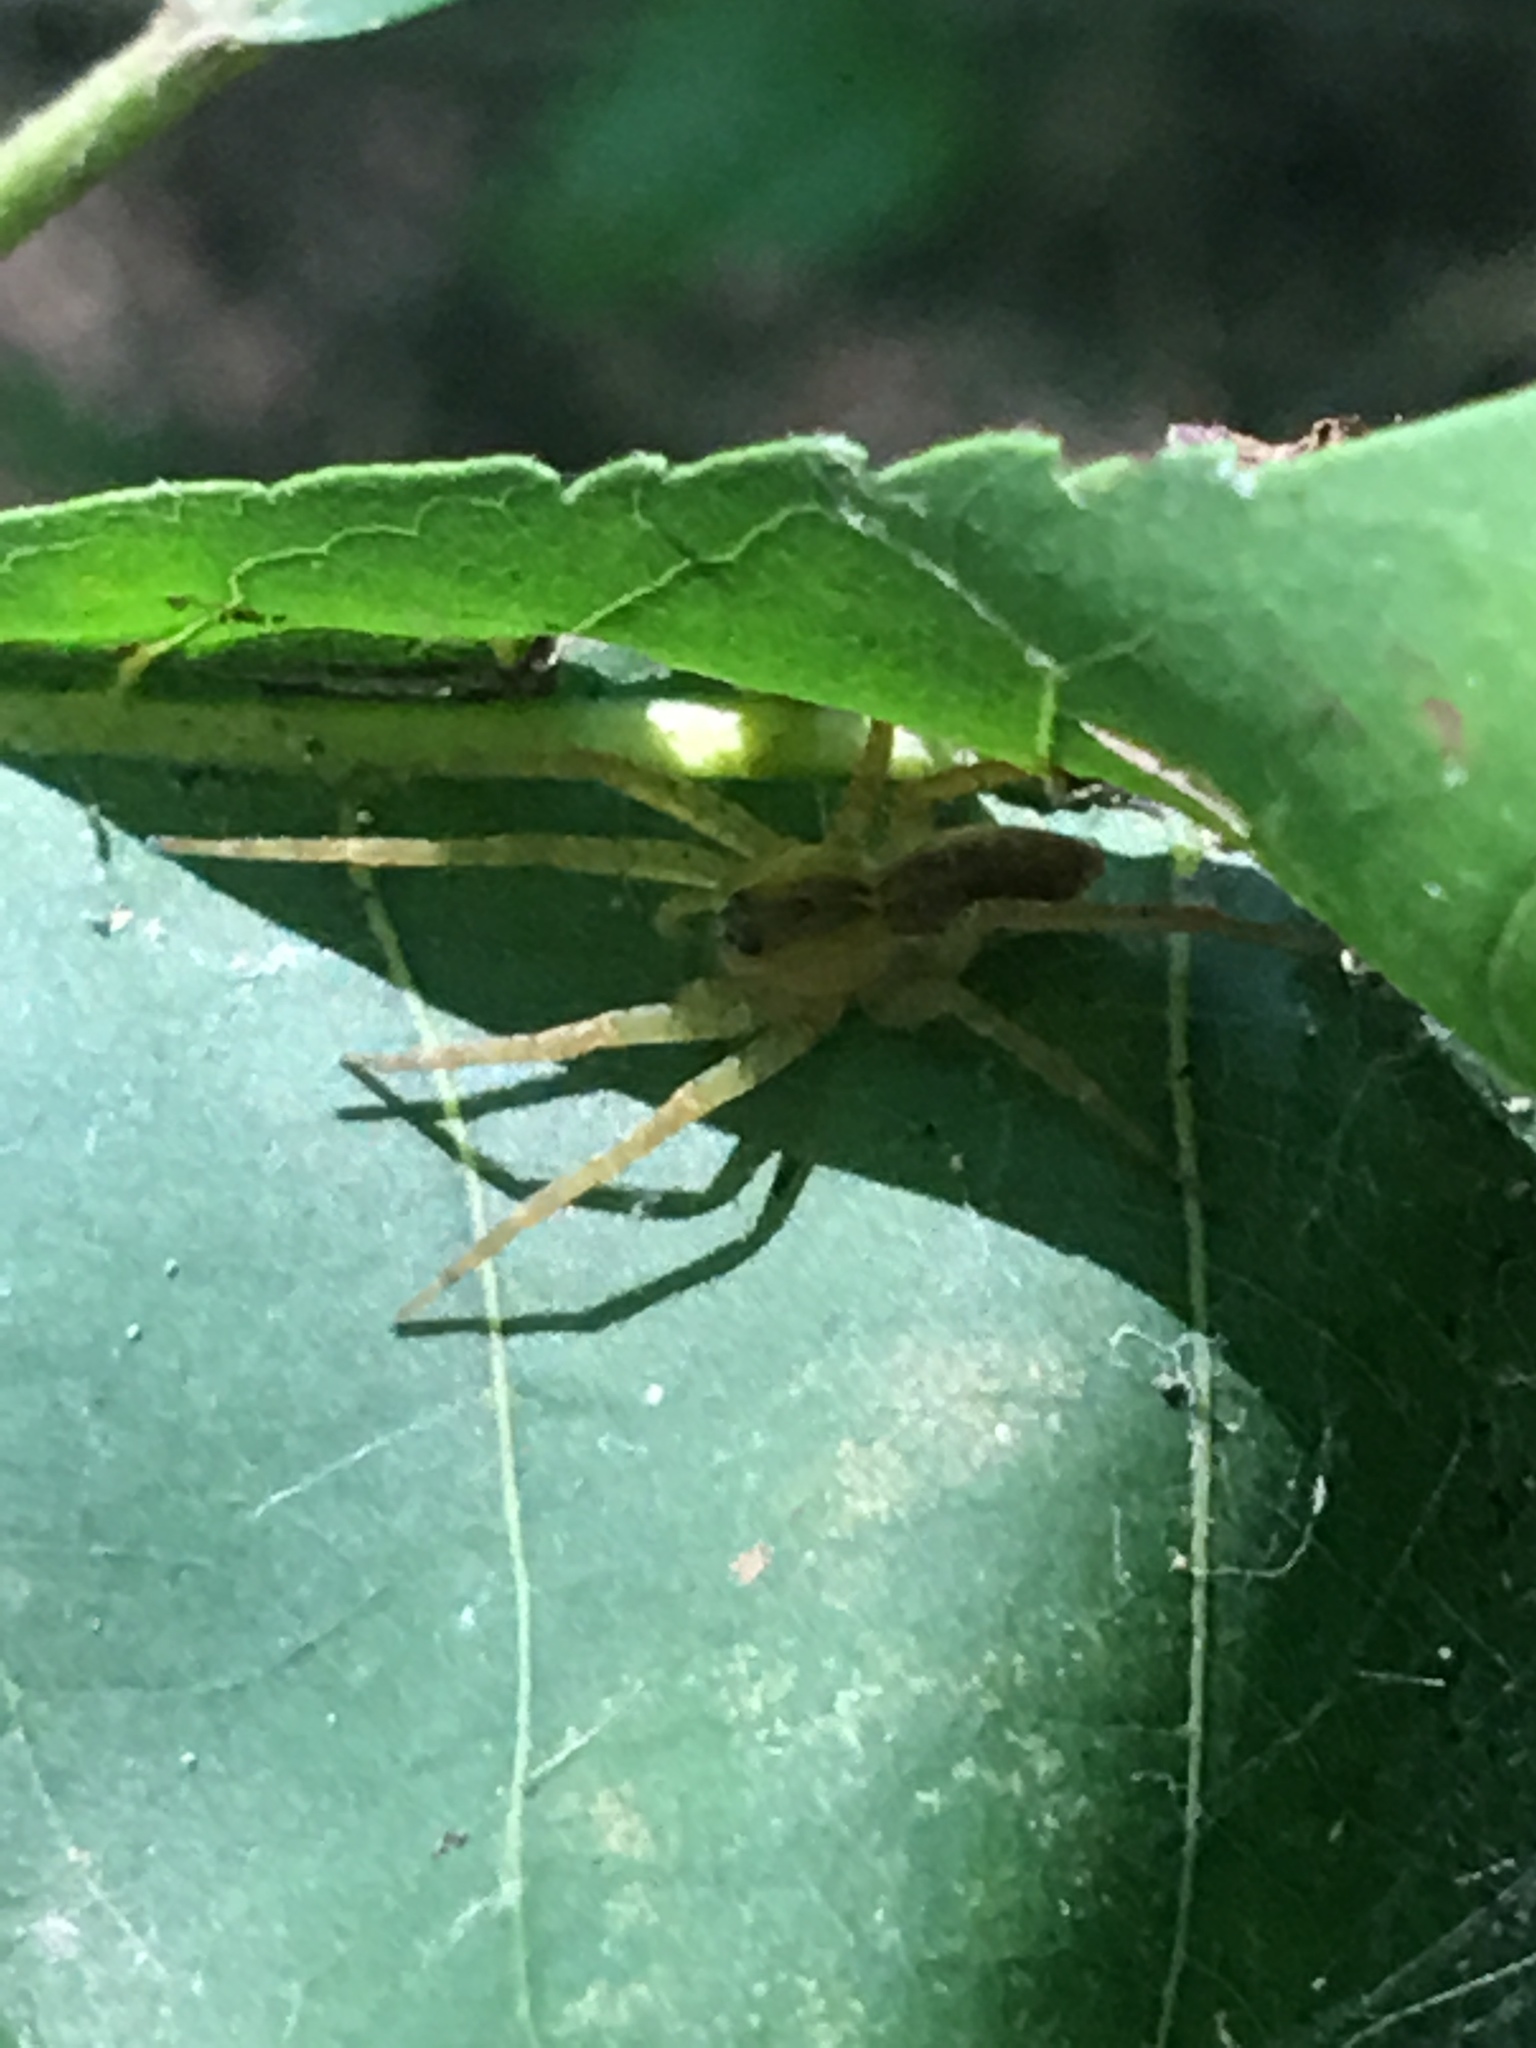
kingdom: Animalia
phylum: Arthropoda
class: Arachnida
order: Araneae
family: Pisauridae
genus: Pisaurina
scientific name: Pisaurina mira
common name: American nursery web spider
